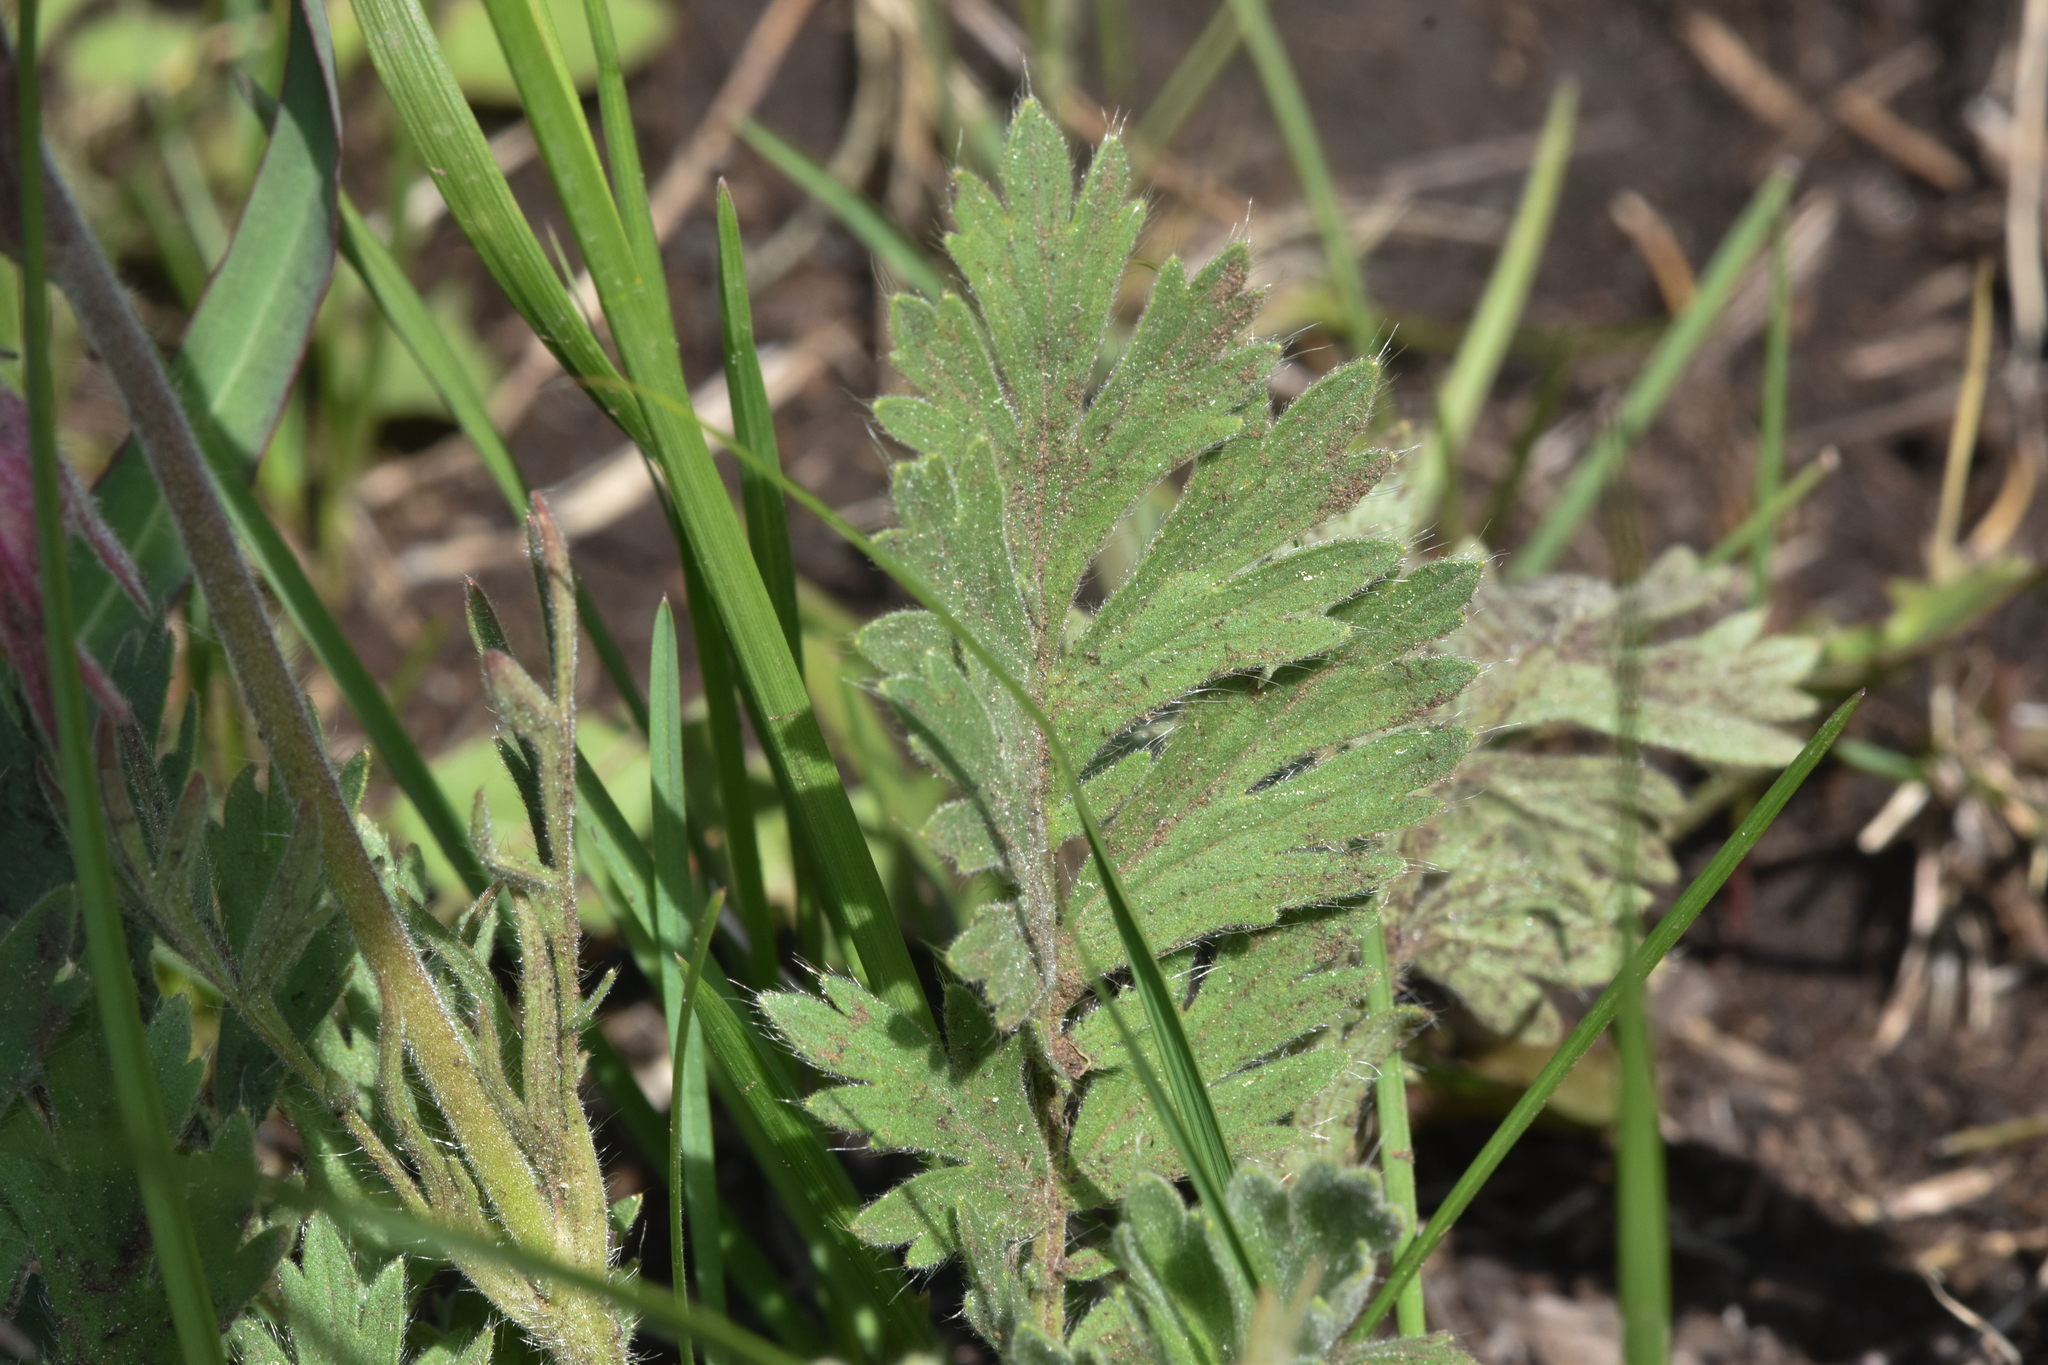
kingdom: Plantae
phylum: Tracheophyta
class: Magnoliopsida
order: Rosales
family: Rosaceae
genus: Geum
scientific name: Geum triflorum
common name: Old man's whiskers
